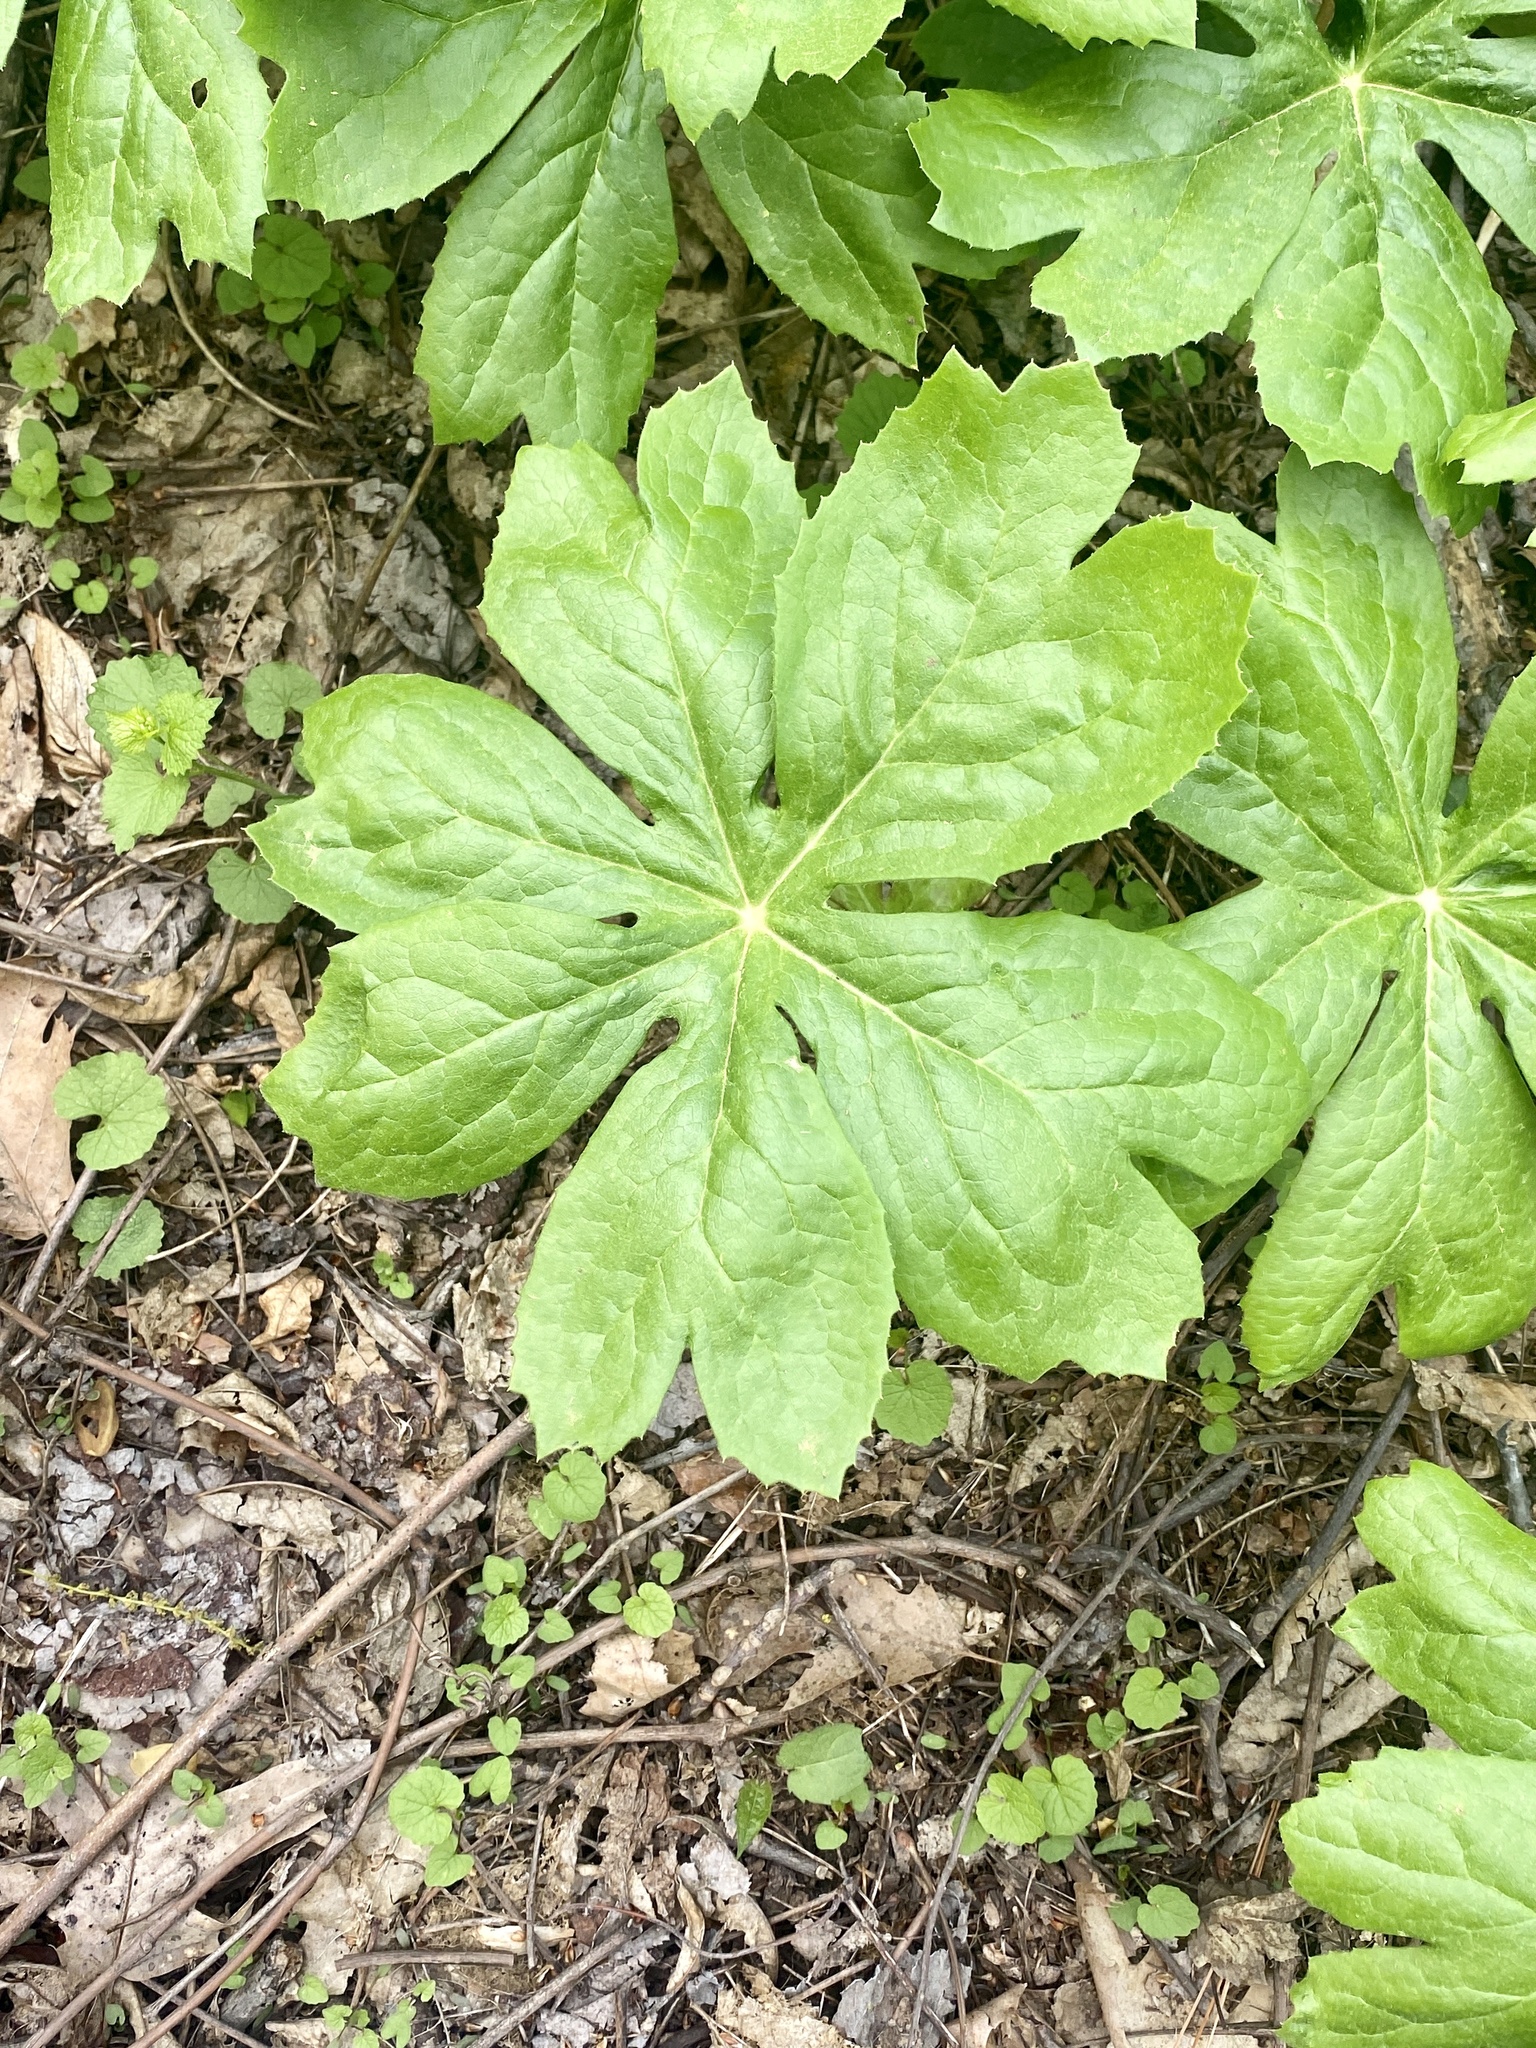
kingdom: Plantae
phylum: Tracheophyta
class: Magnoliopsida
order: Ranunculales
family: Berberidaceae
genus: Podophyllum
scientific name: Podophyllum peltatum
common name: Wild mandrake
